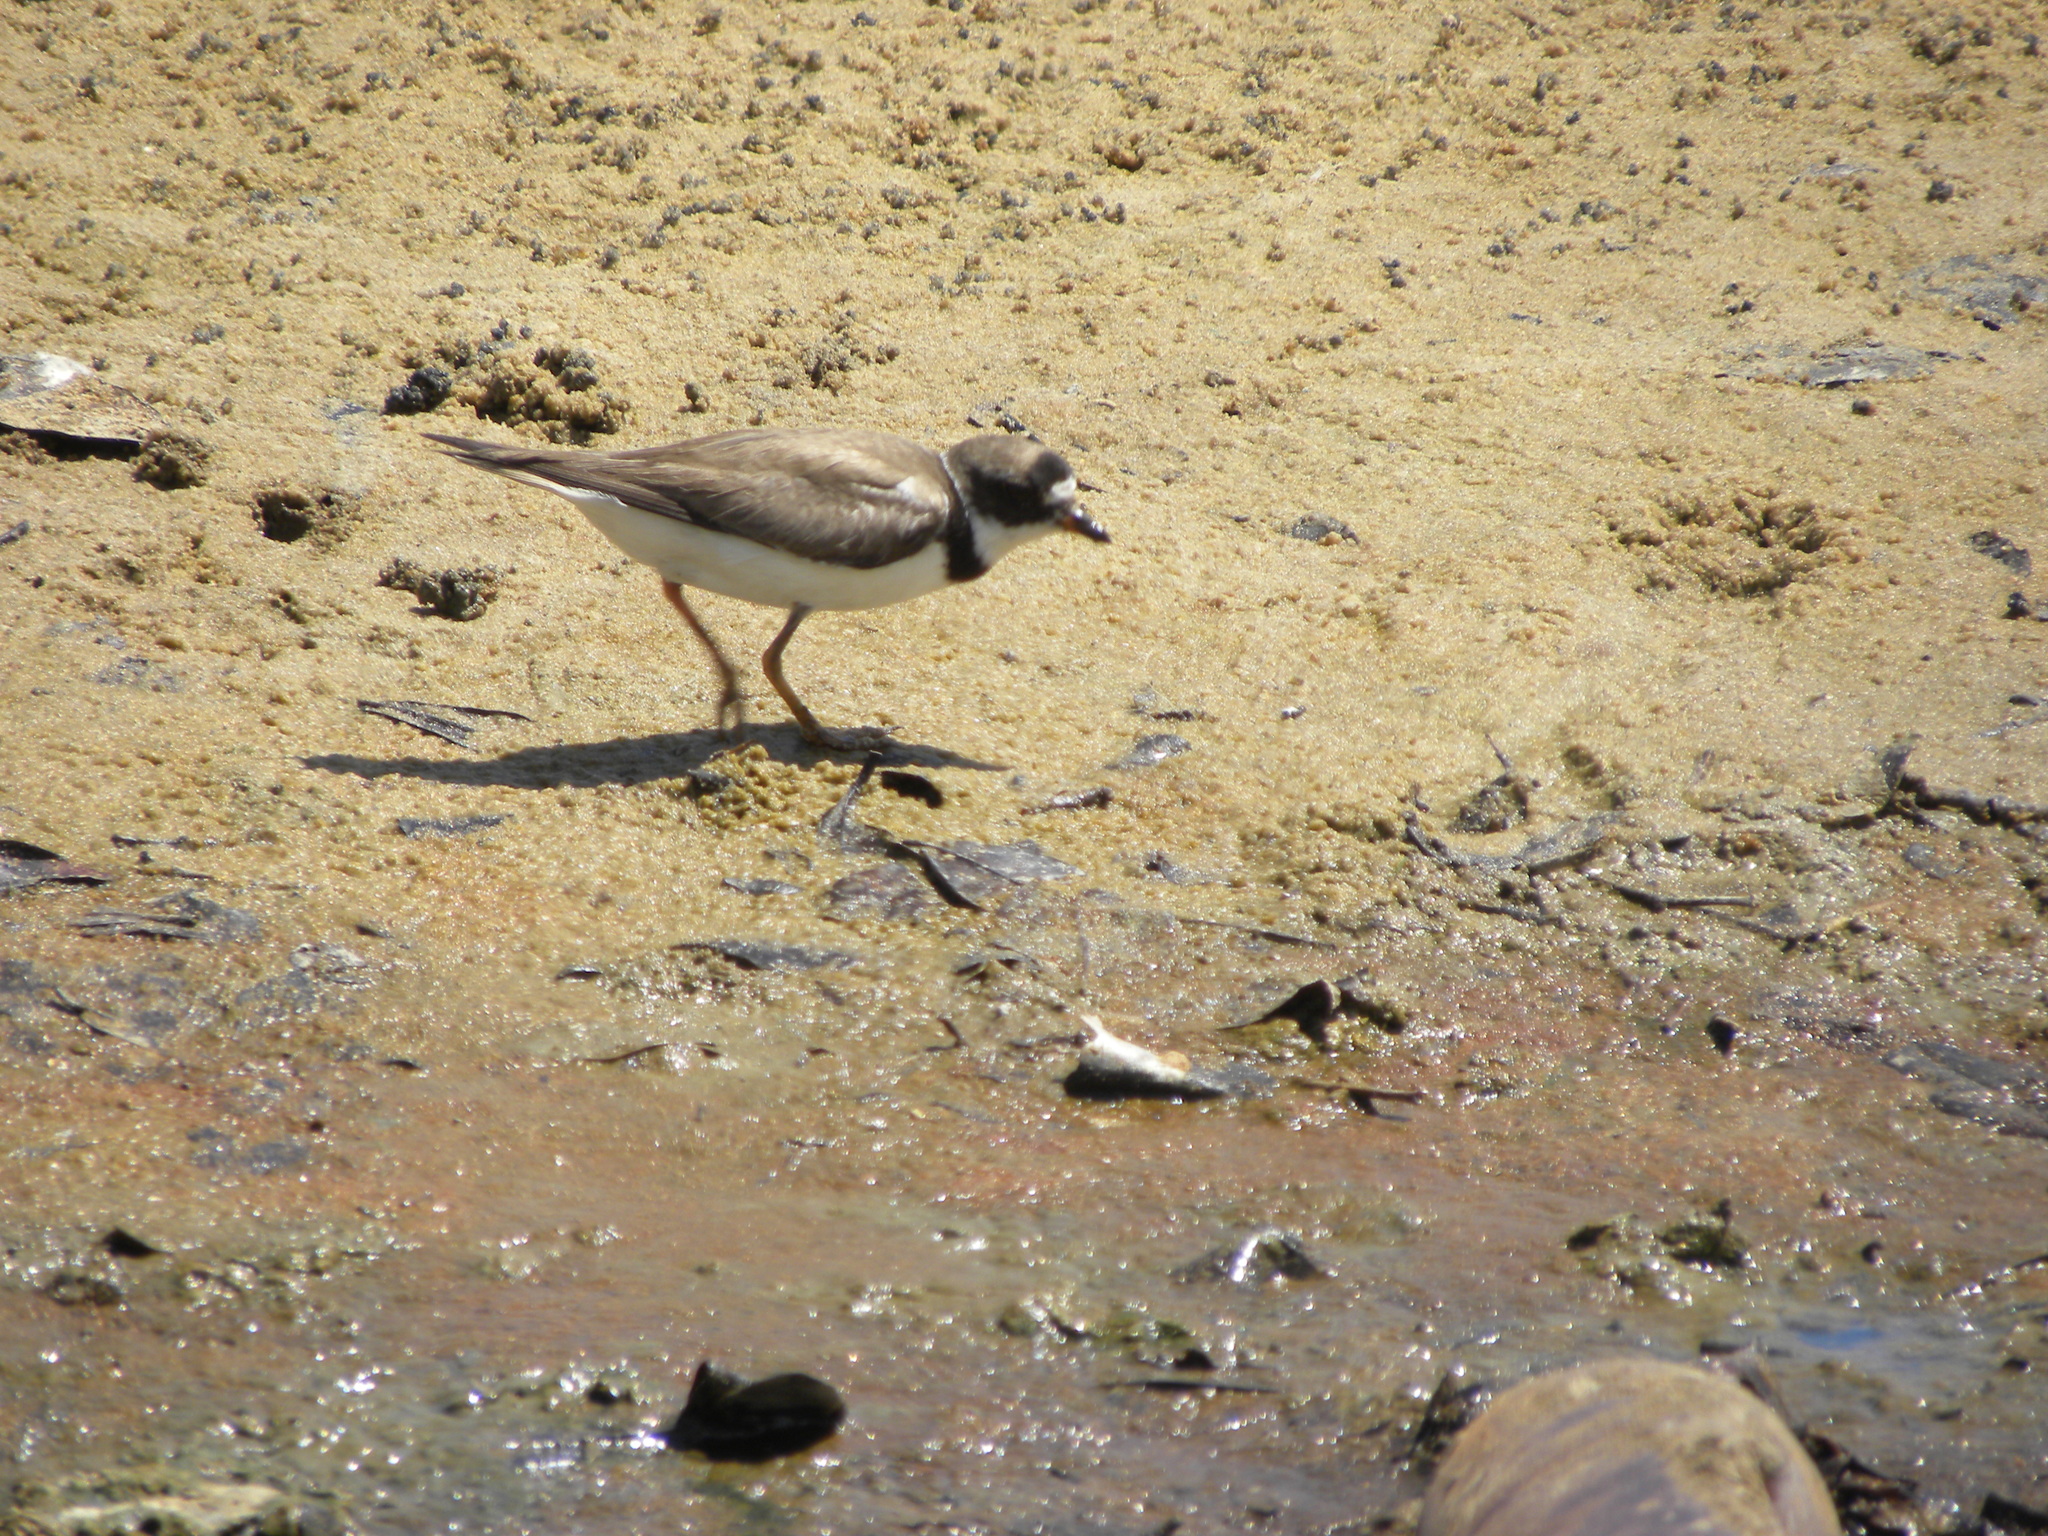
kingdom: Animalia
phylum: Chordata
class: Aves
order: Charadriiformes
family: Charadriidae
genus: Charadrius
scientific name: Charadrius semipalmatus
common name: Semipalmated plover
